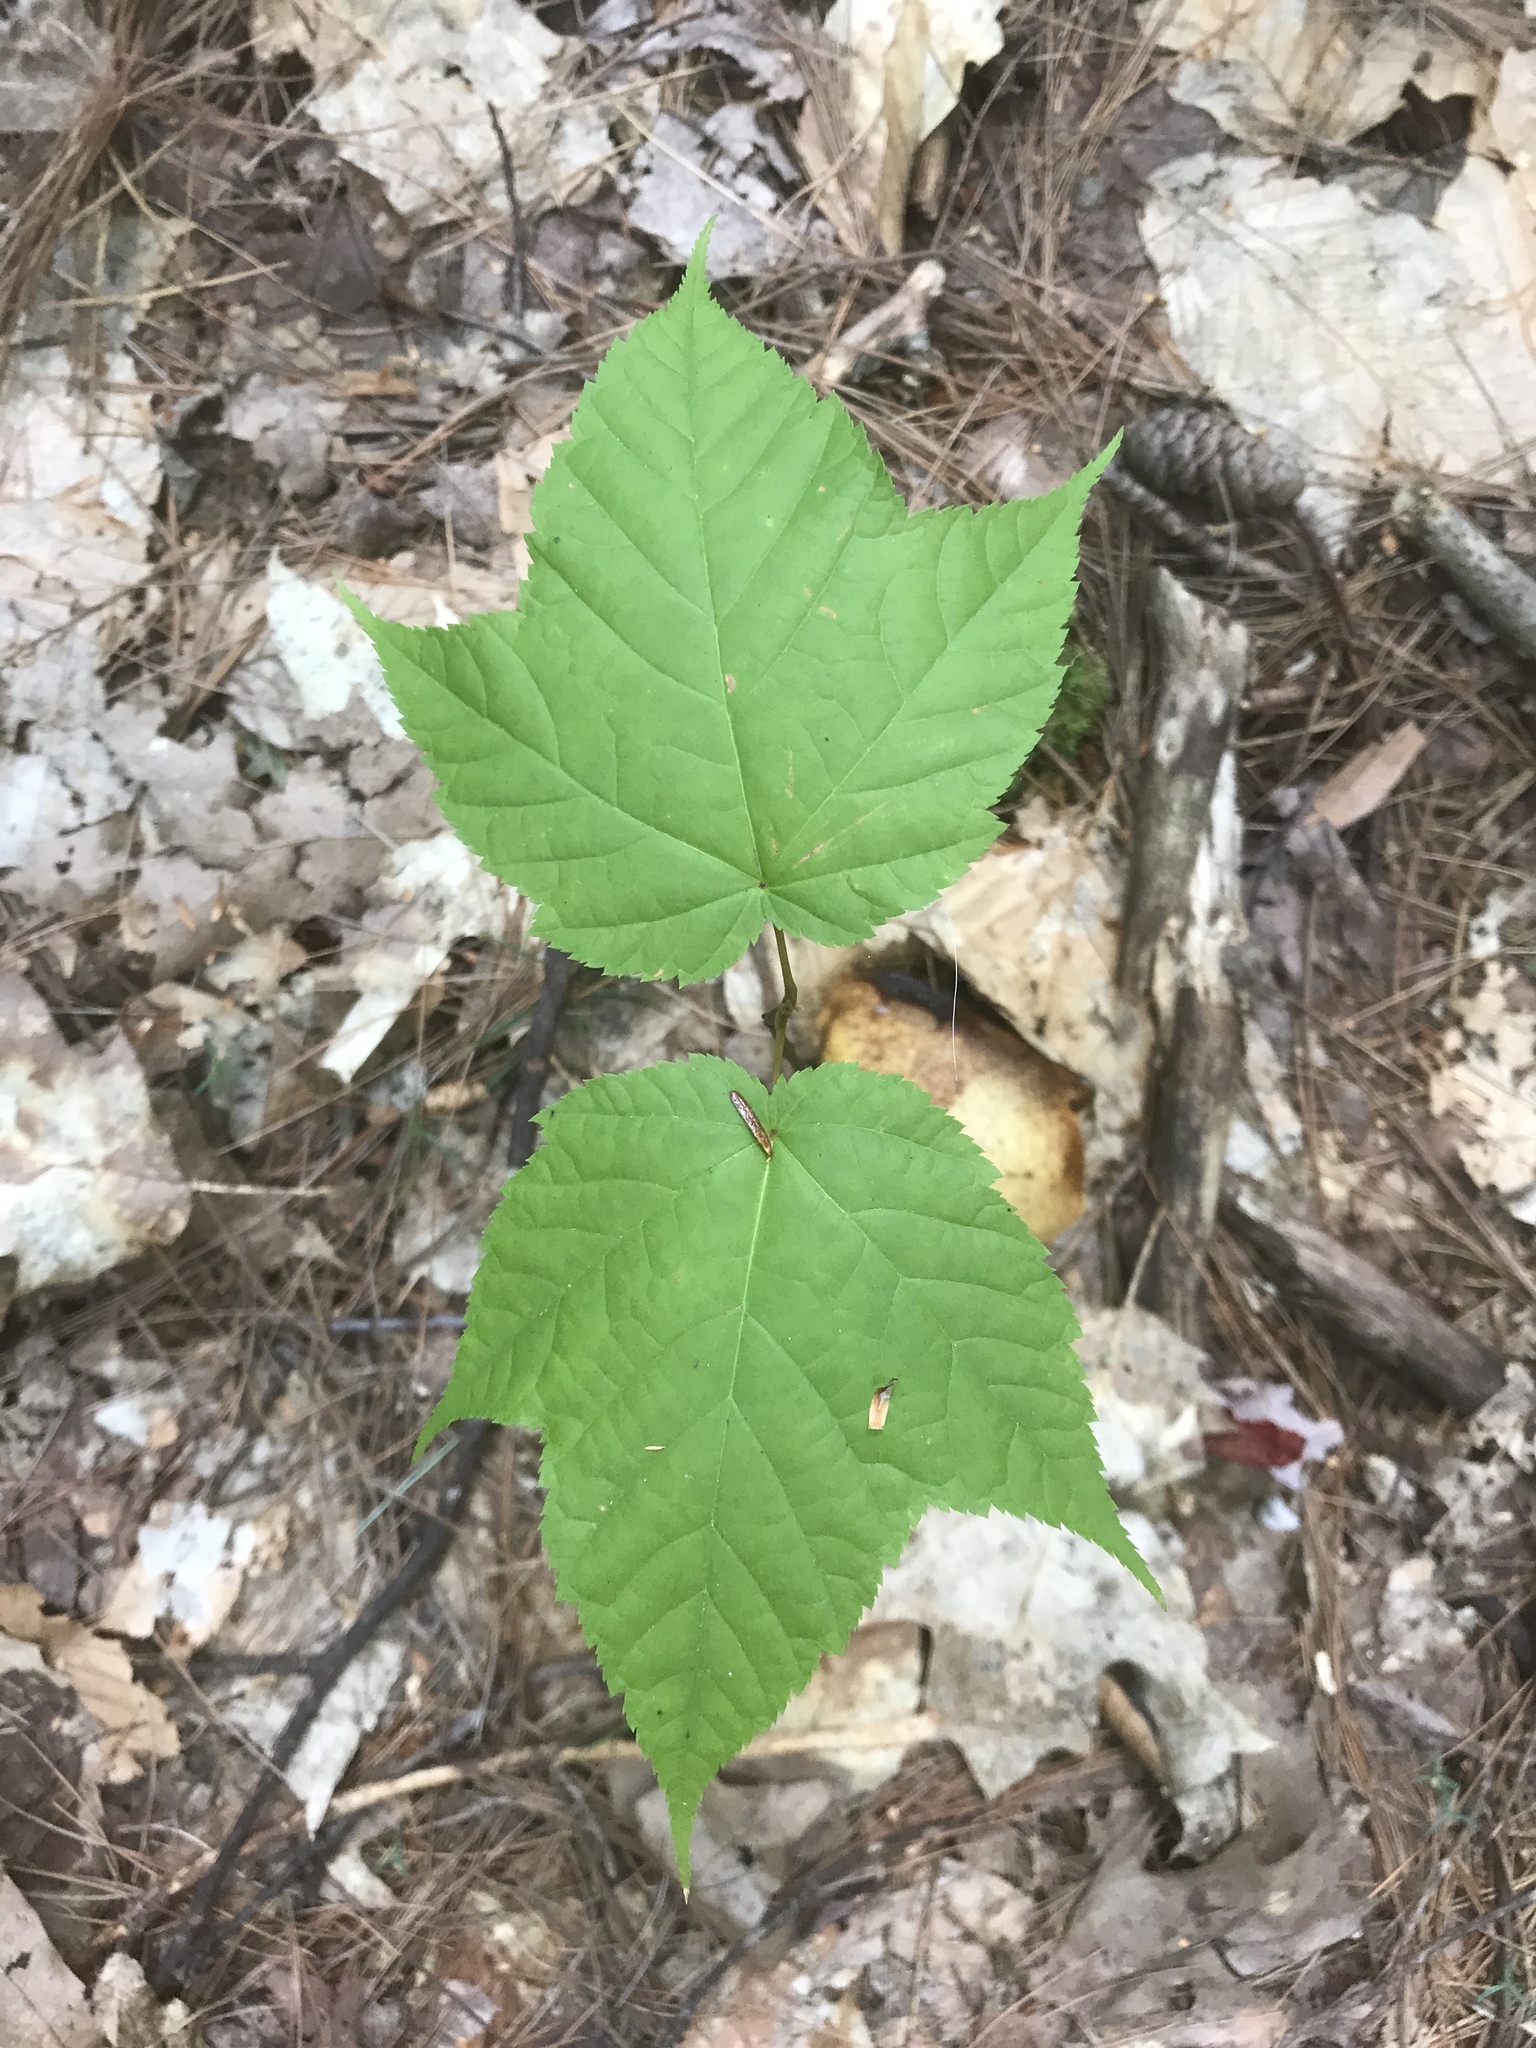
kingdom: Plantae
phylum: Tracheophyta
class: Magnoliopsida
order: Sapindales
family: Sapindaceae
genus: Acer
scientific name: Acer pensylvanicum
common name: Moosewood
